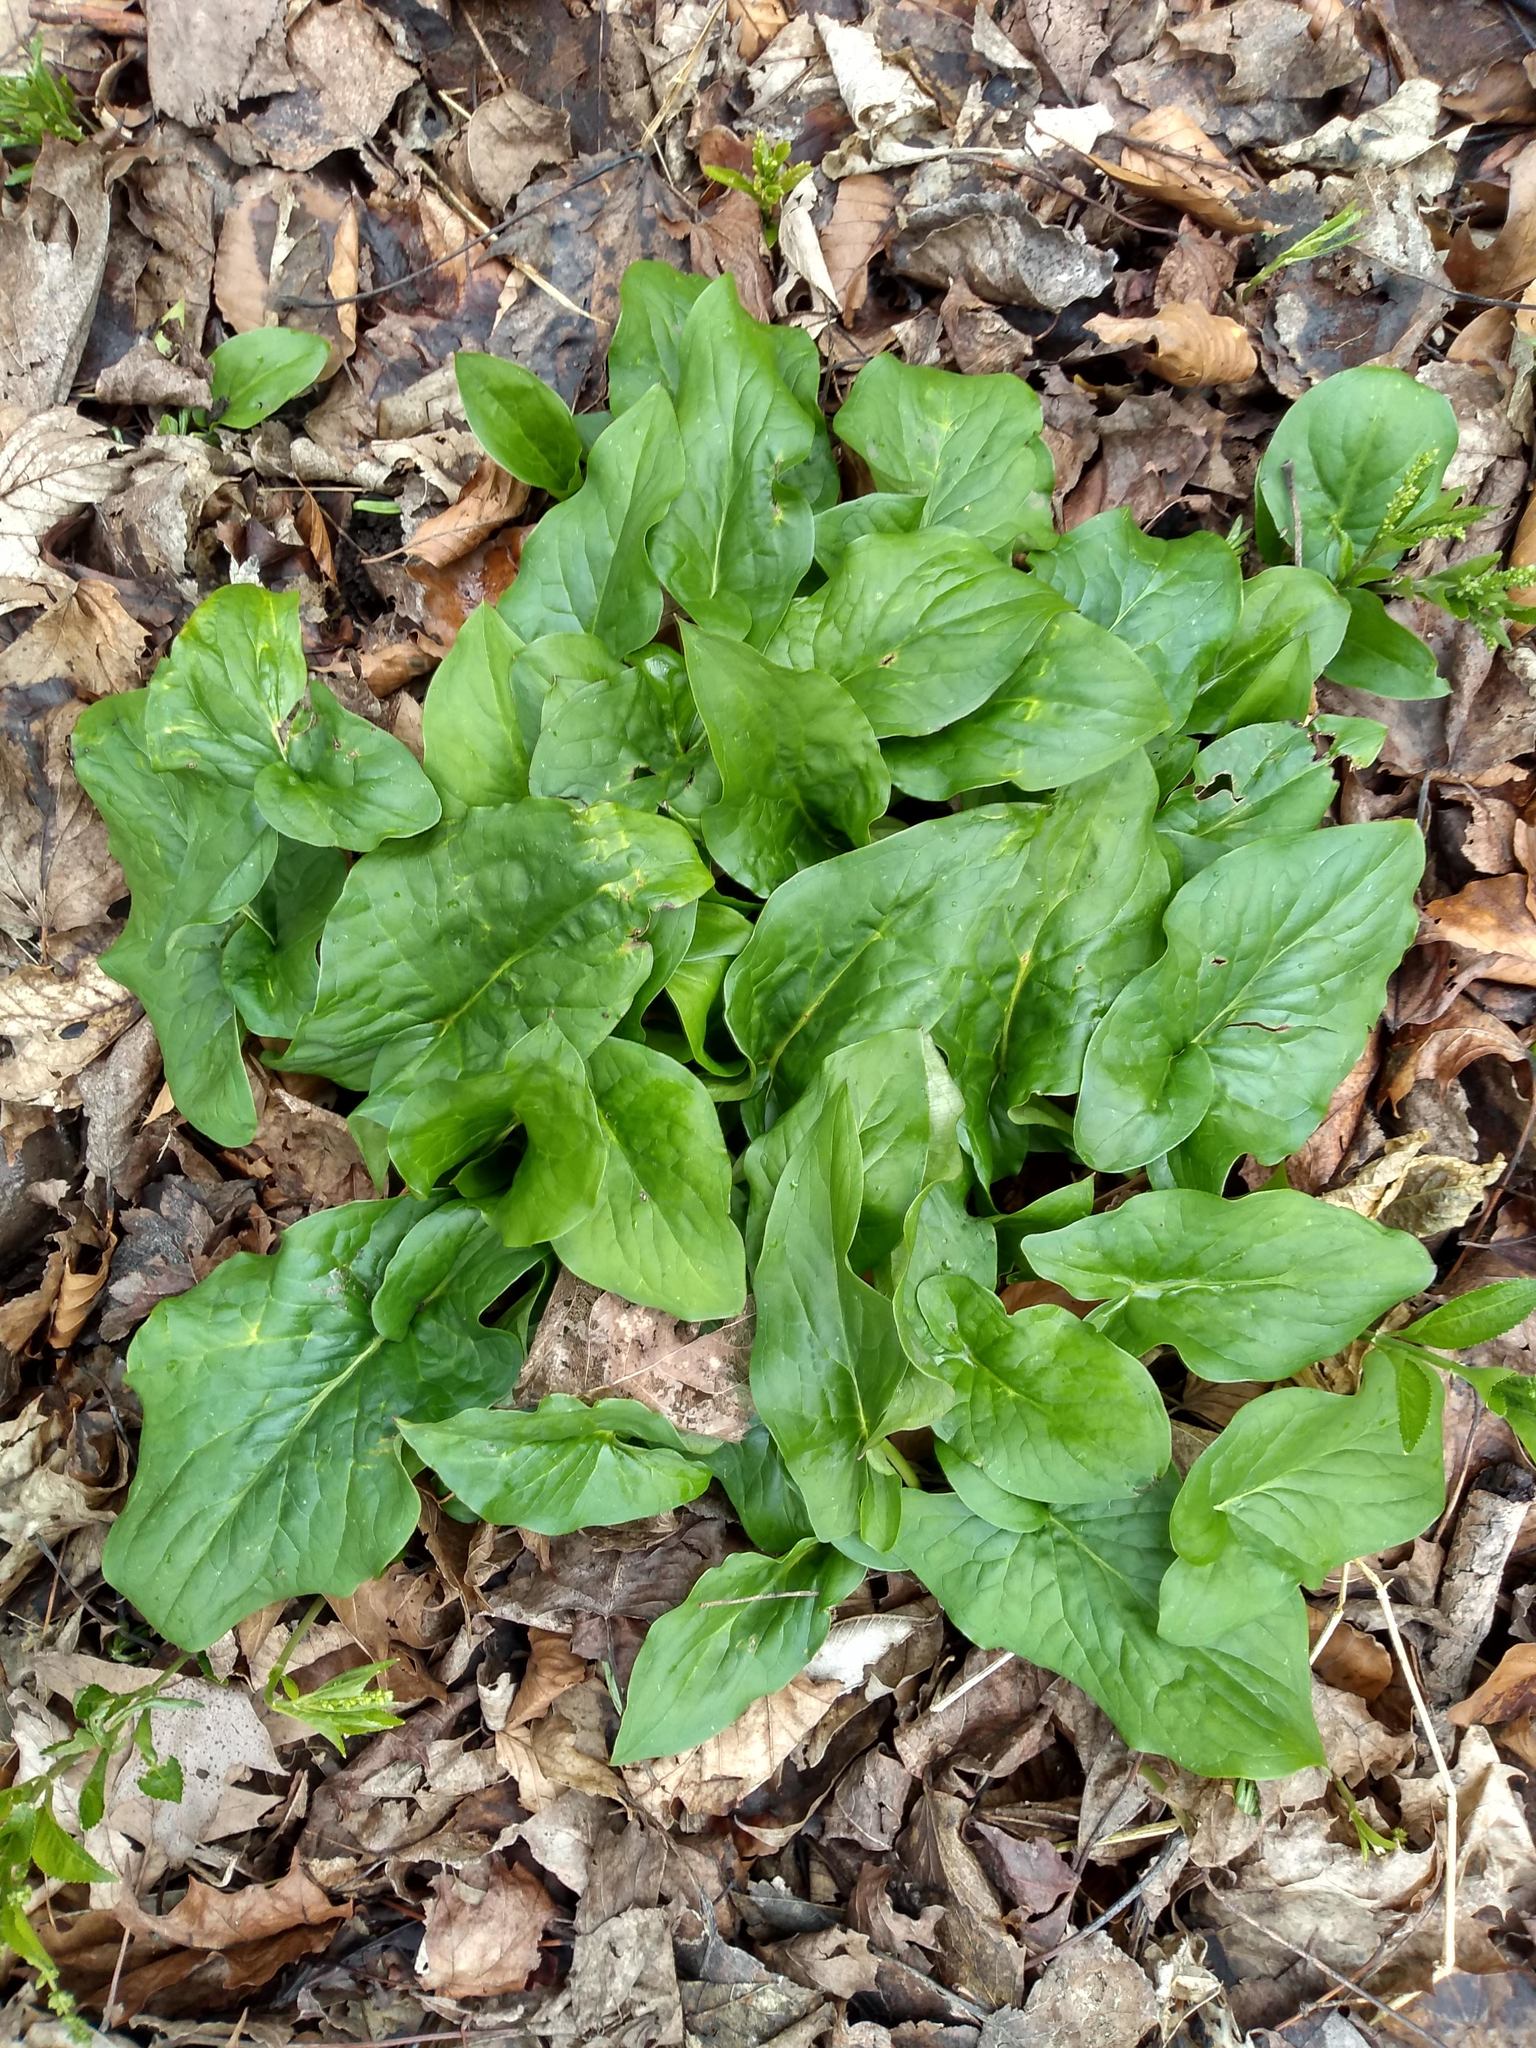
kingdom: Plantae
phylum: Tracheophyta
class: Liliopsida
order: Alismatales
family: Araceae
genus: Arum
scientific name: Arum maculatum
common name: Lords-and-ladies
